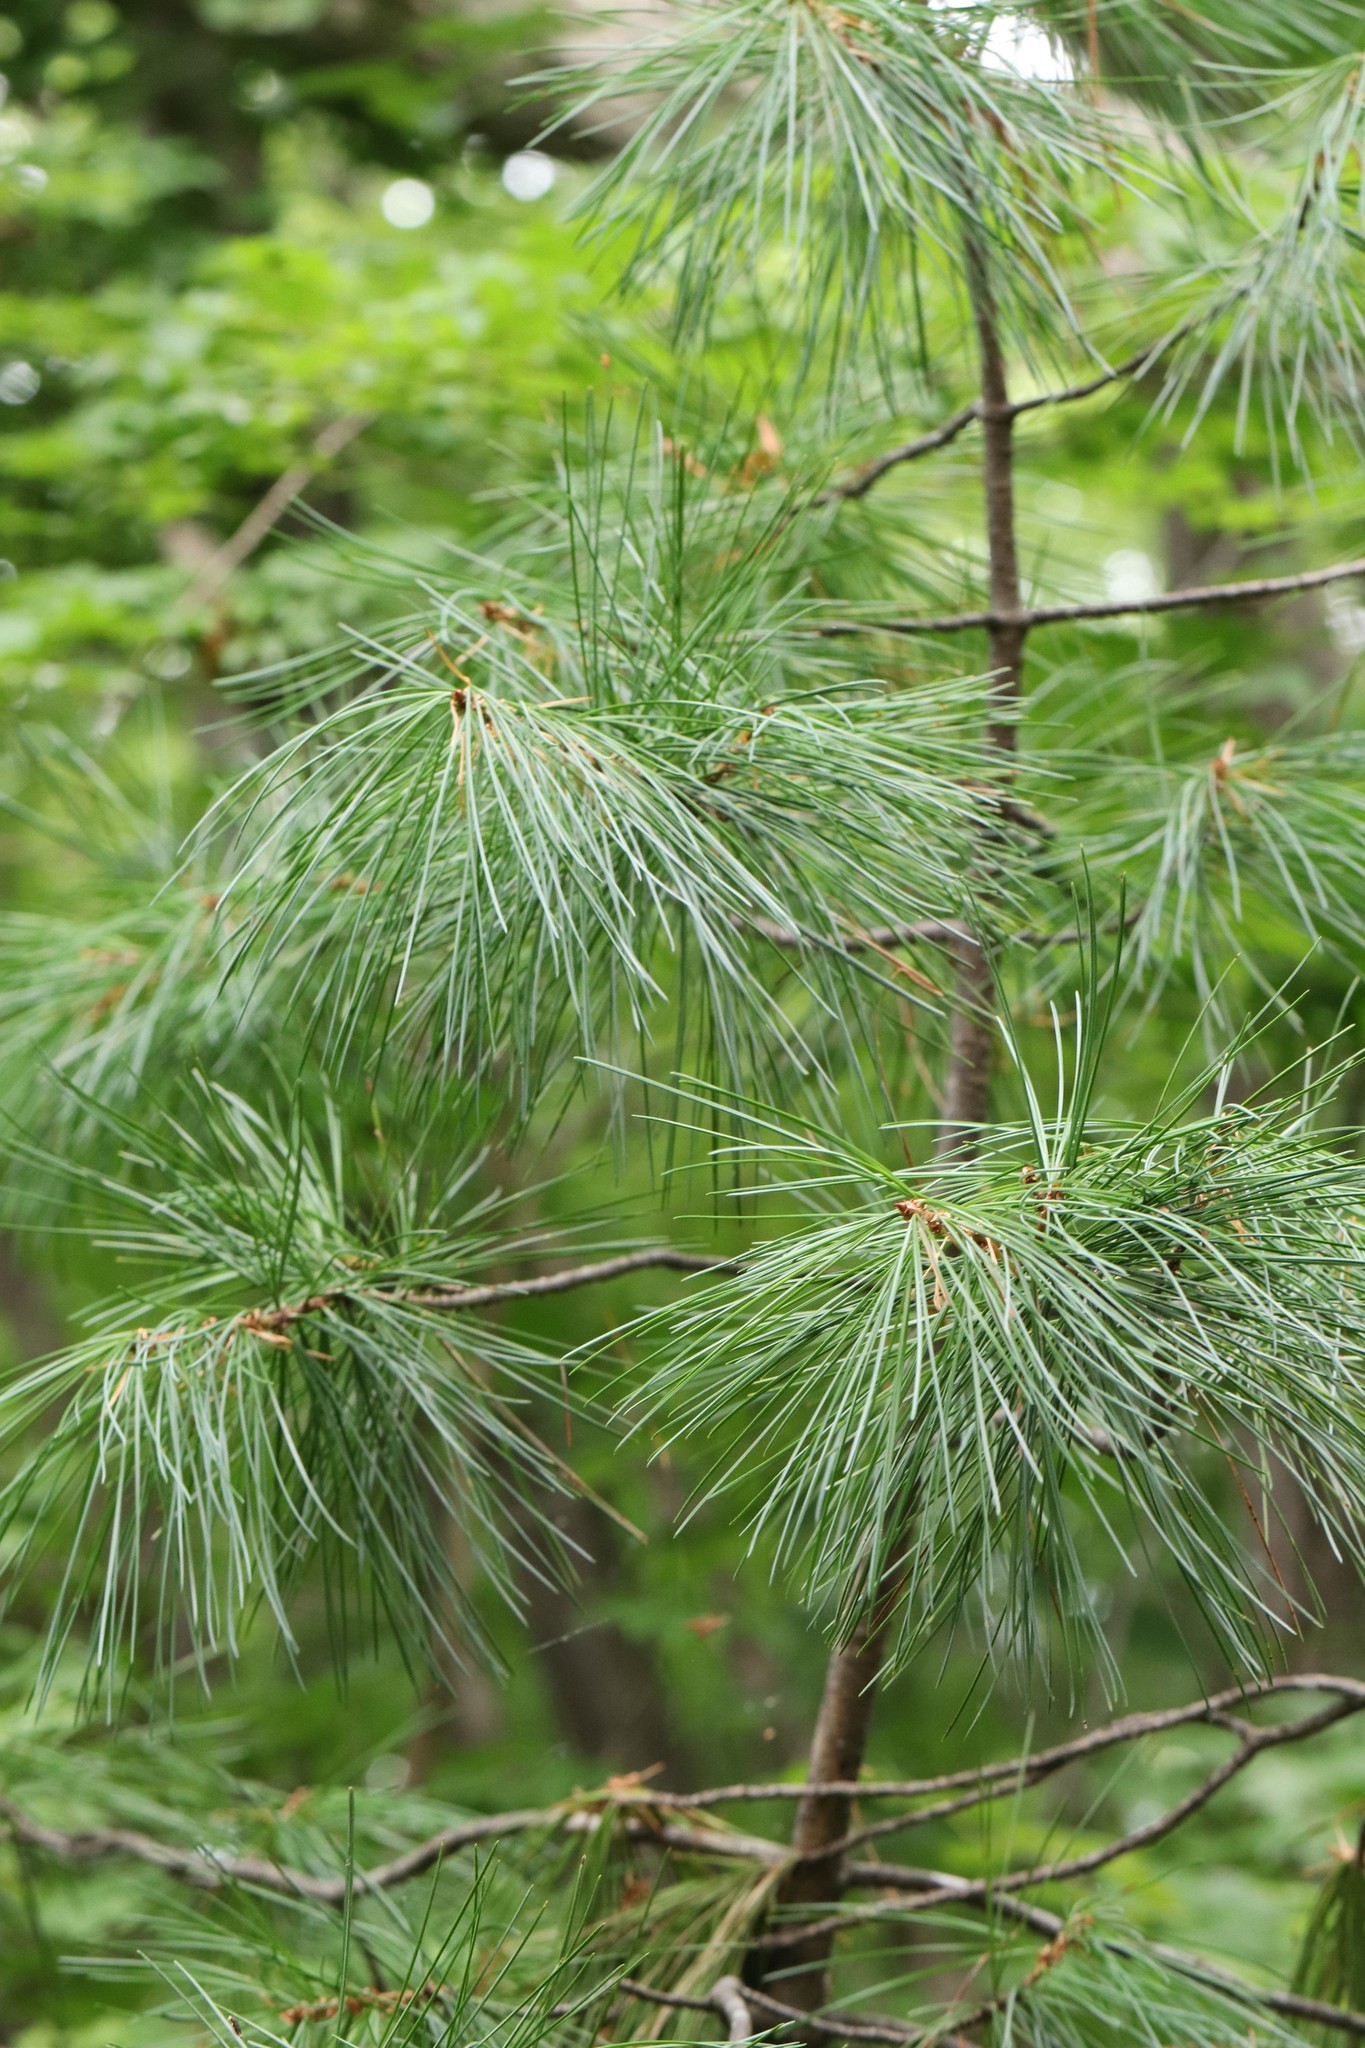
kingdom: Plantae
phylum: Tracheophyta
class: Pinopsida
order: Pinales
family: Pinaceae
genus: Pinus
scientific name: Pinus koraiensis
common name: Korean pine
